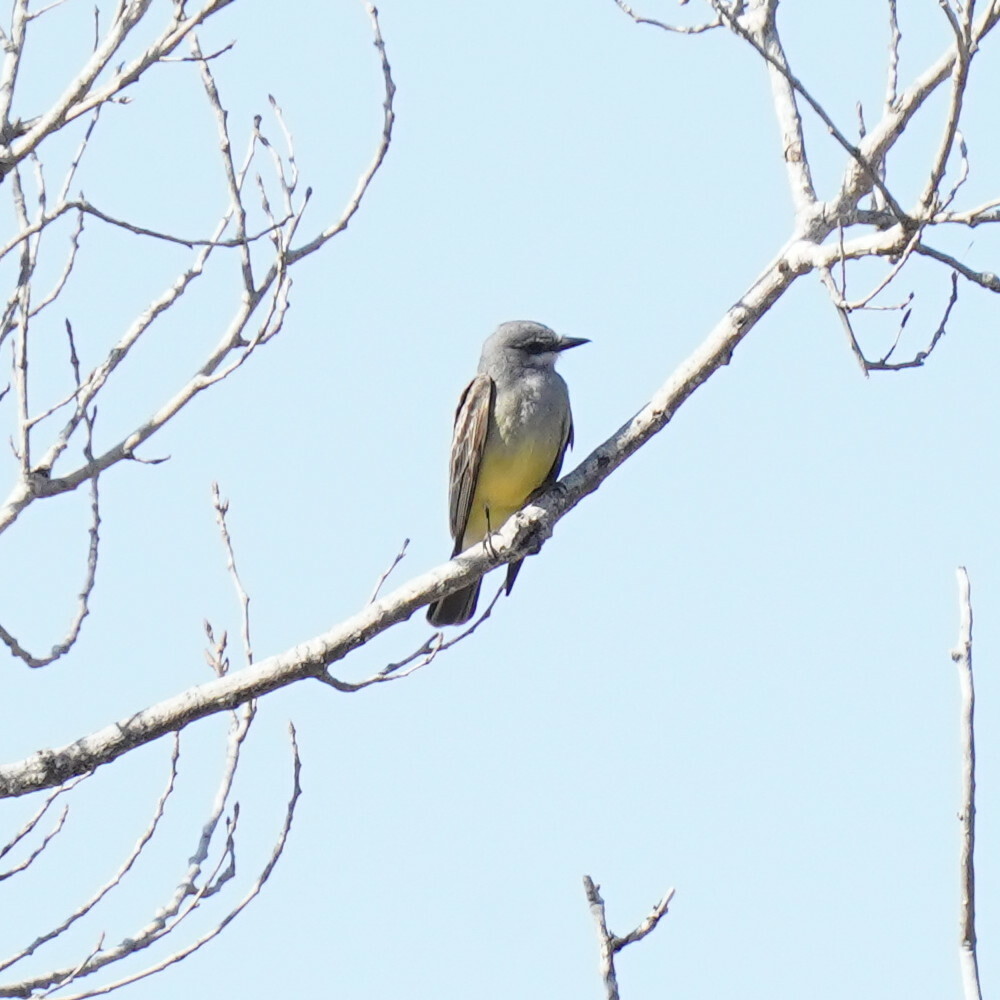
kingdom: Animalia
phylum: Chordata
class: Aves
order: Passeriformes
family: Tyrannidae
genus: Tyrannus
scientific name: Tyrannus vociferans
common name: Cassin's kingbird
